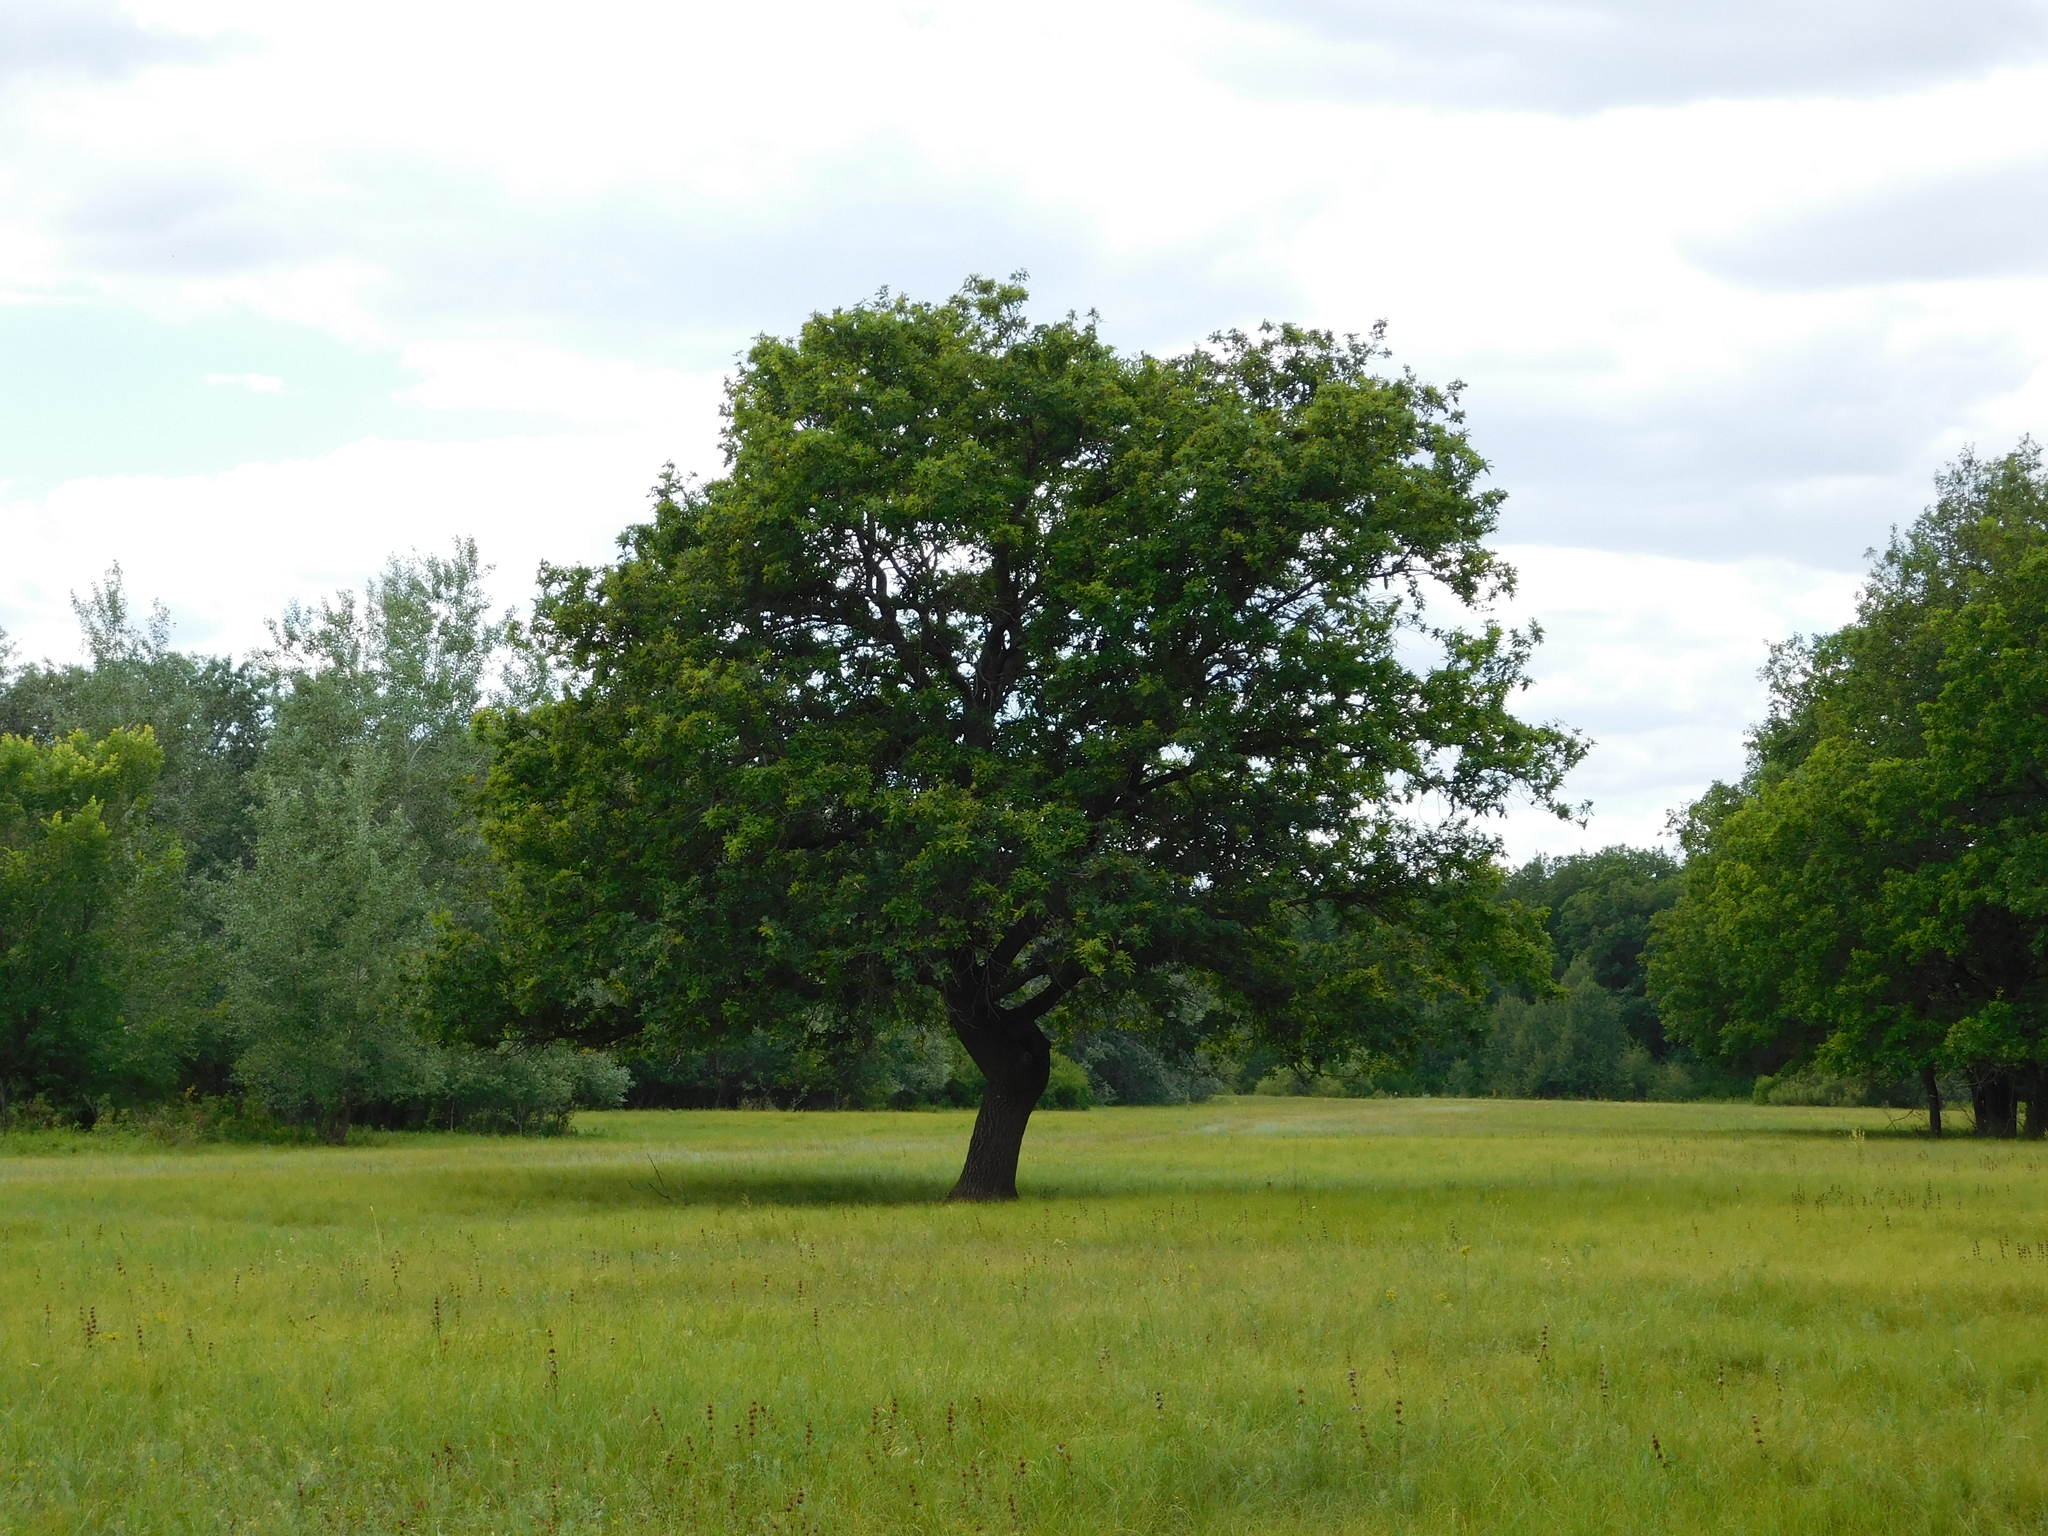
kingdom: Plantae
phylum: Tracheophyta
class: Magnoliopsida
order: Fagales
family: Fagaceae
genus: Quercus
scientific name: Quercus robur
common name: Pedunculate oak
